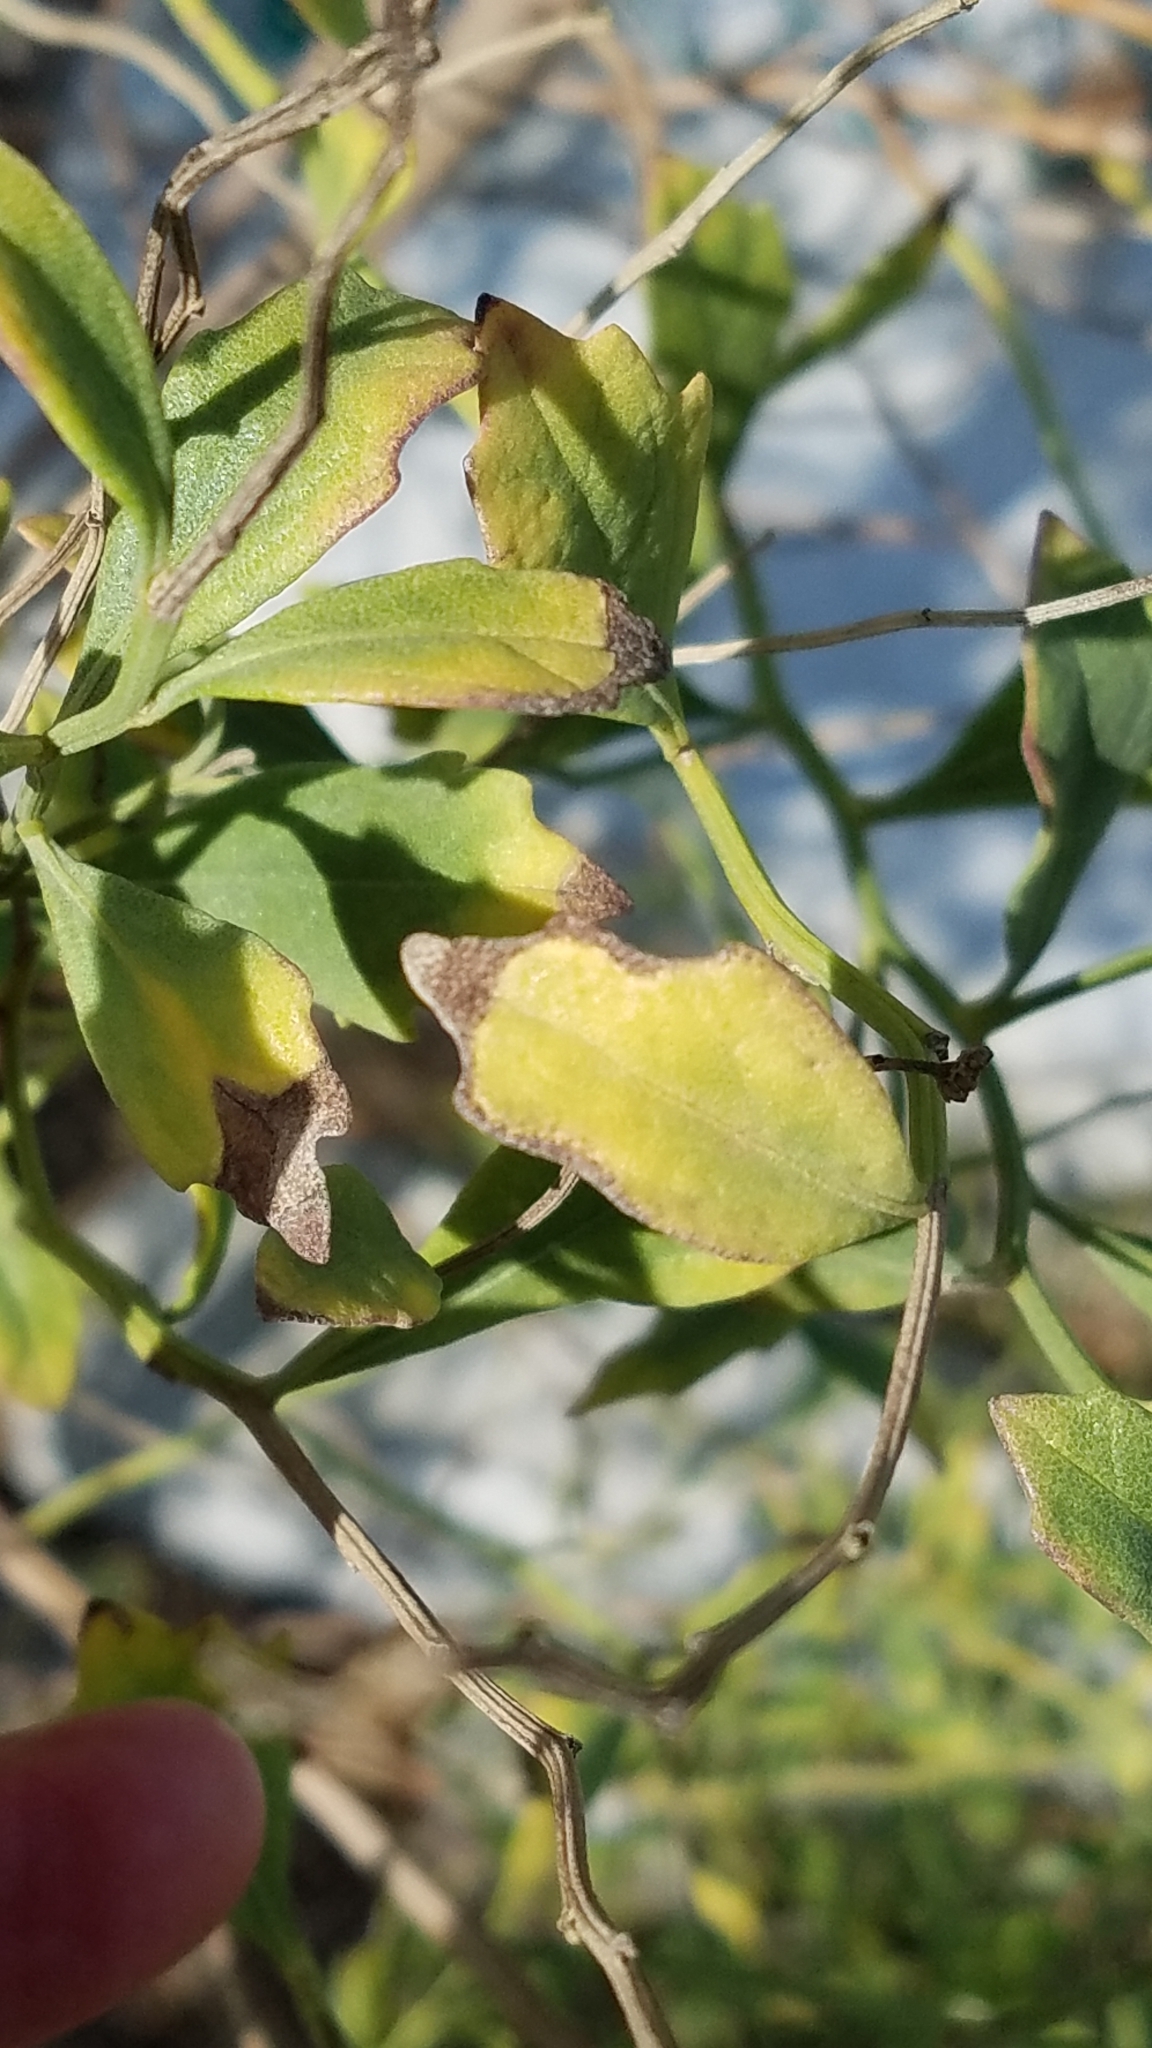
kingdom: Plantae
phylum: Tracheophyta
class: Magnoliopsida
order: Asterales
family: Asteraceae
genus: Baccharis
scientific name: Baccharis halimifolia
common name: Eastern baccharis
